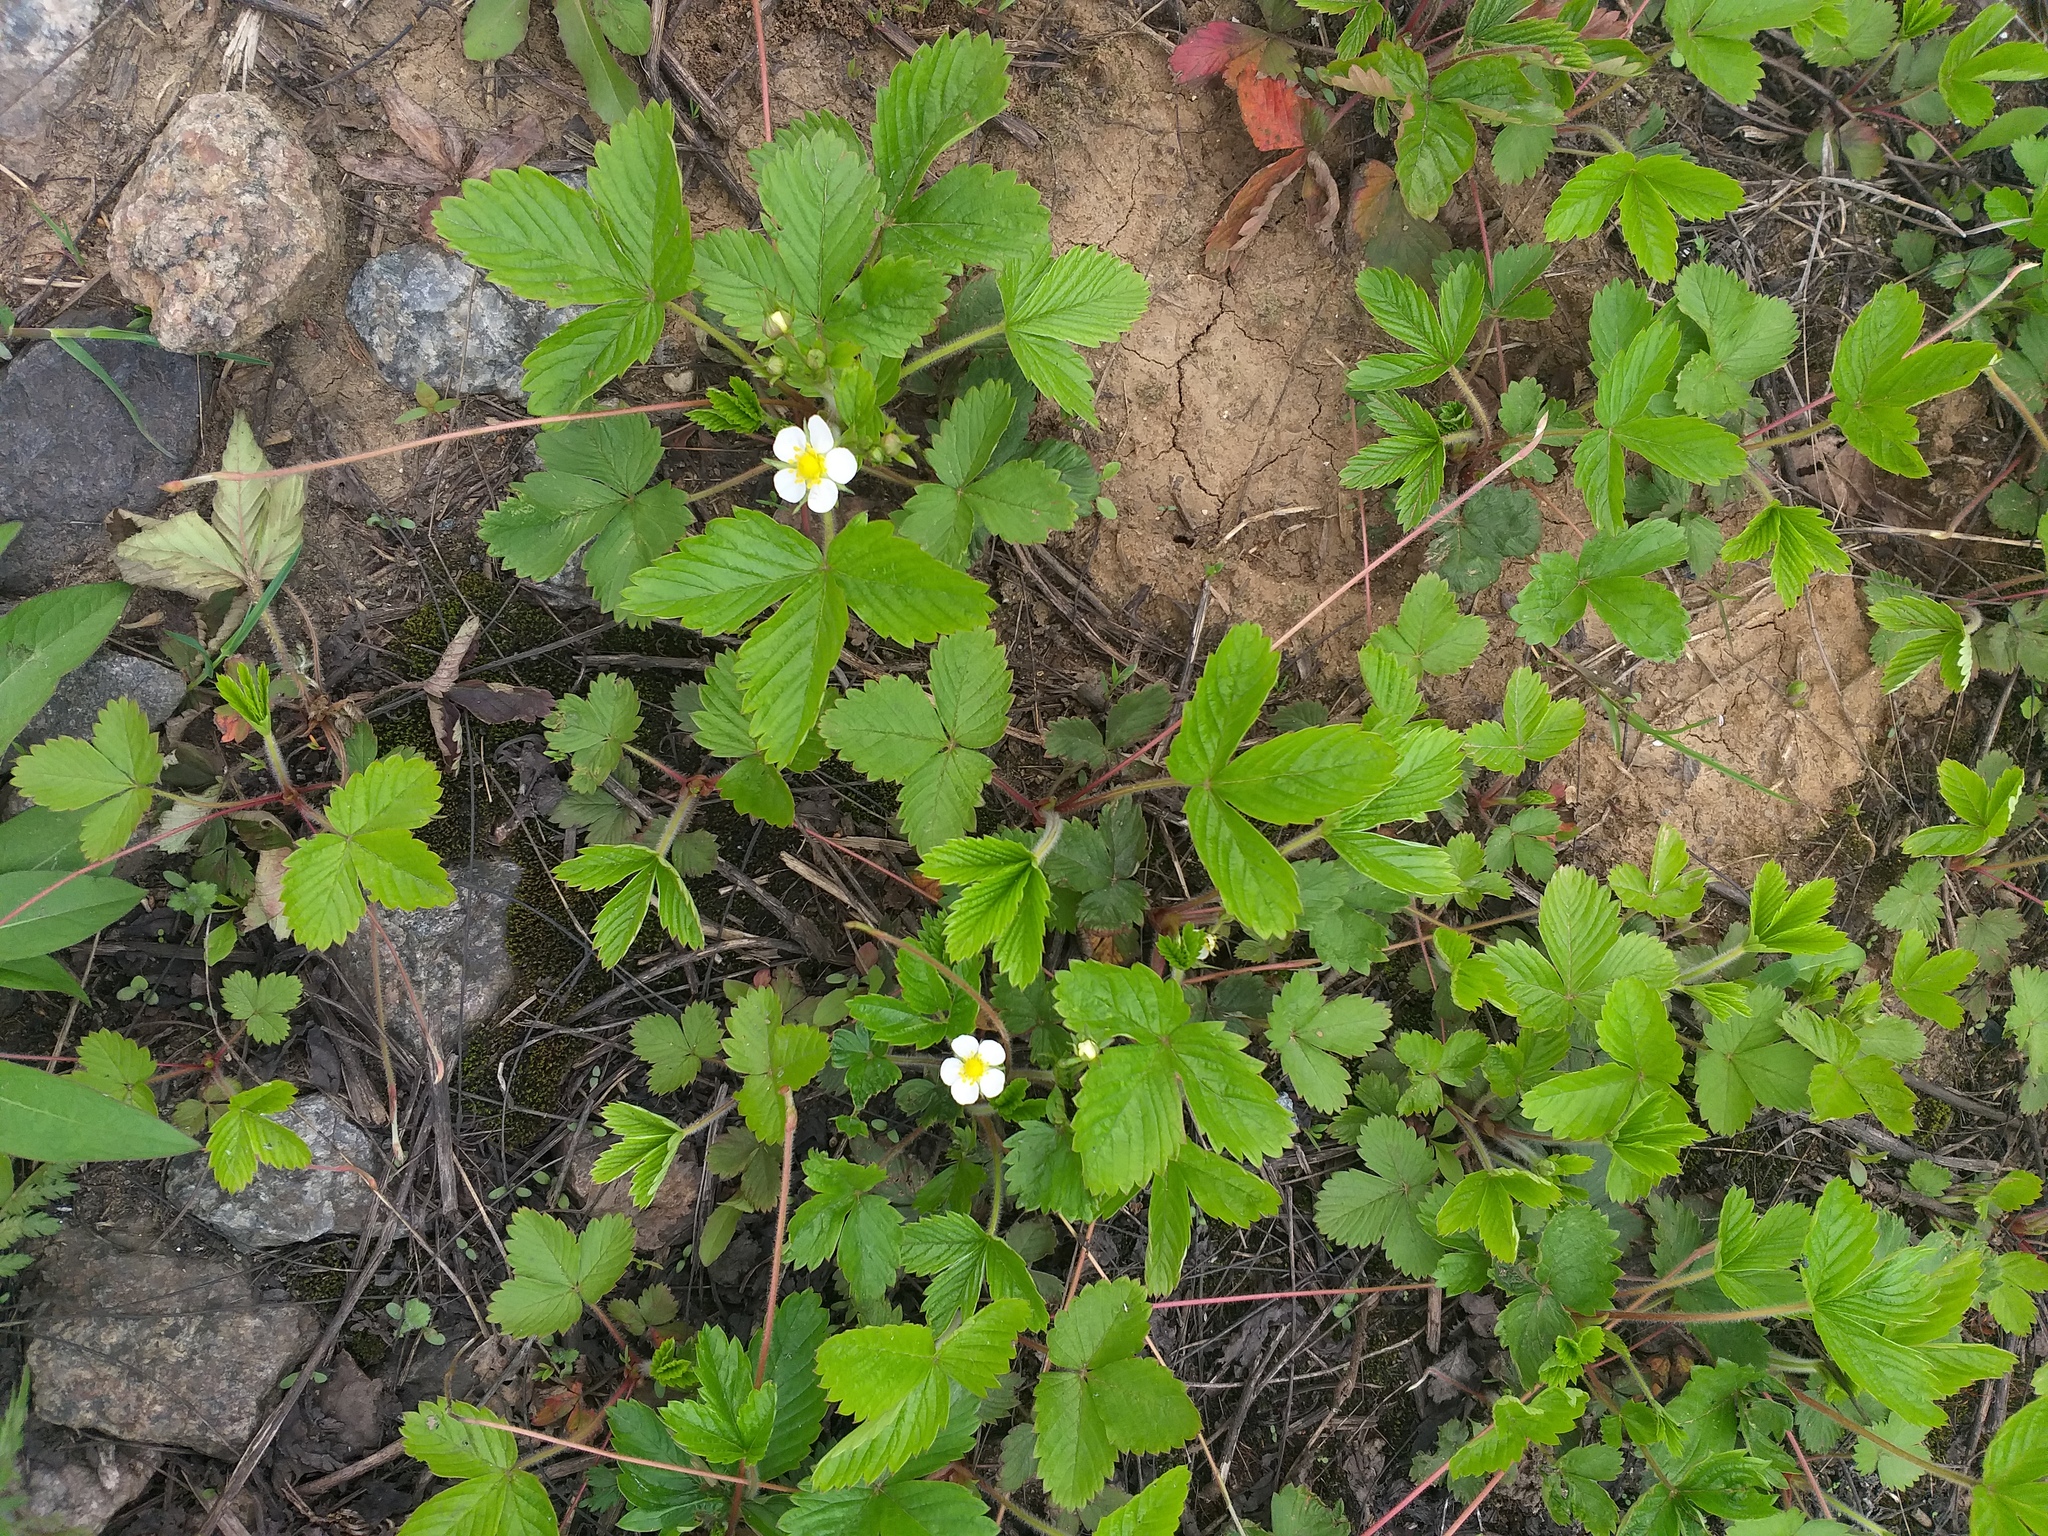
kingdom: Plantae
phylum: Tracheophyta
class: Magnoliopsida
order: Rosales
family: Rosaceae
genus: Fragaria
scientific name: Fragaria vesca
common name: Wild strawberry
